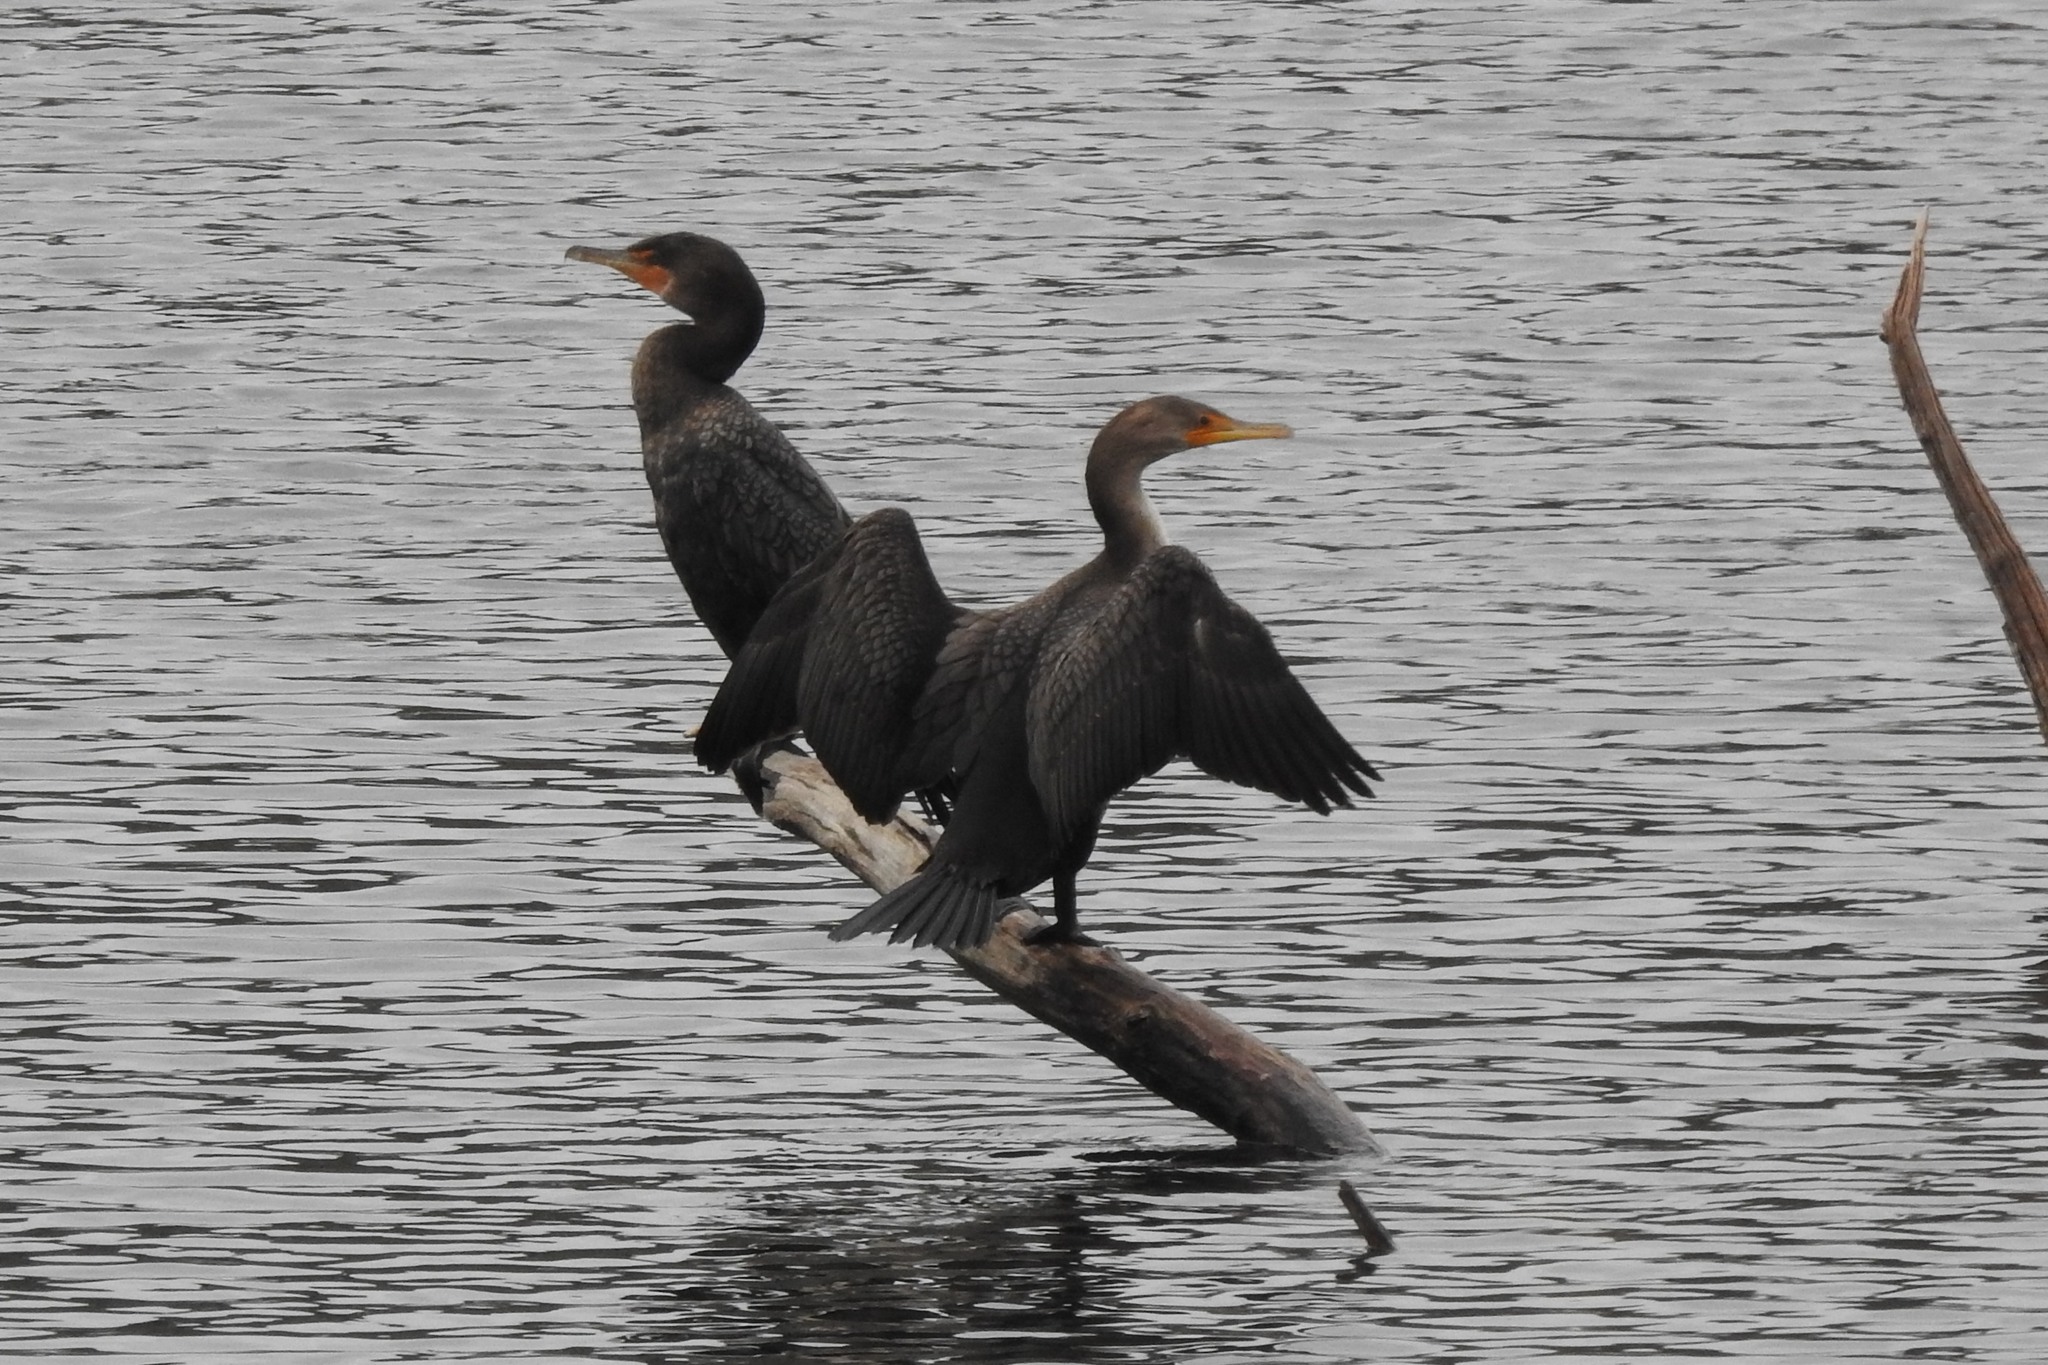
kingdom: Animalia
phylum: Chordata
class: Aves
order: Suliformes
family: Phalacrocoracidae
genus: Phalacrocorax
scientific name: Phalacrocorax auritus
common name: Double-crested cormorant
